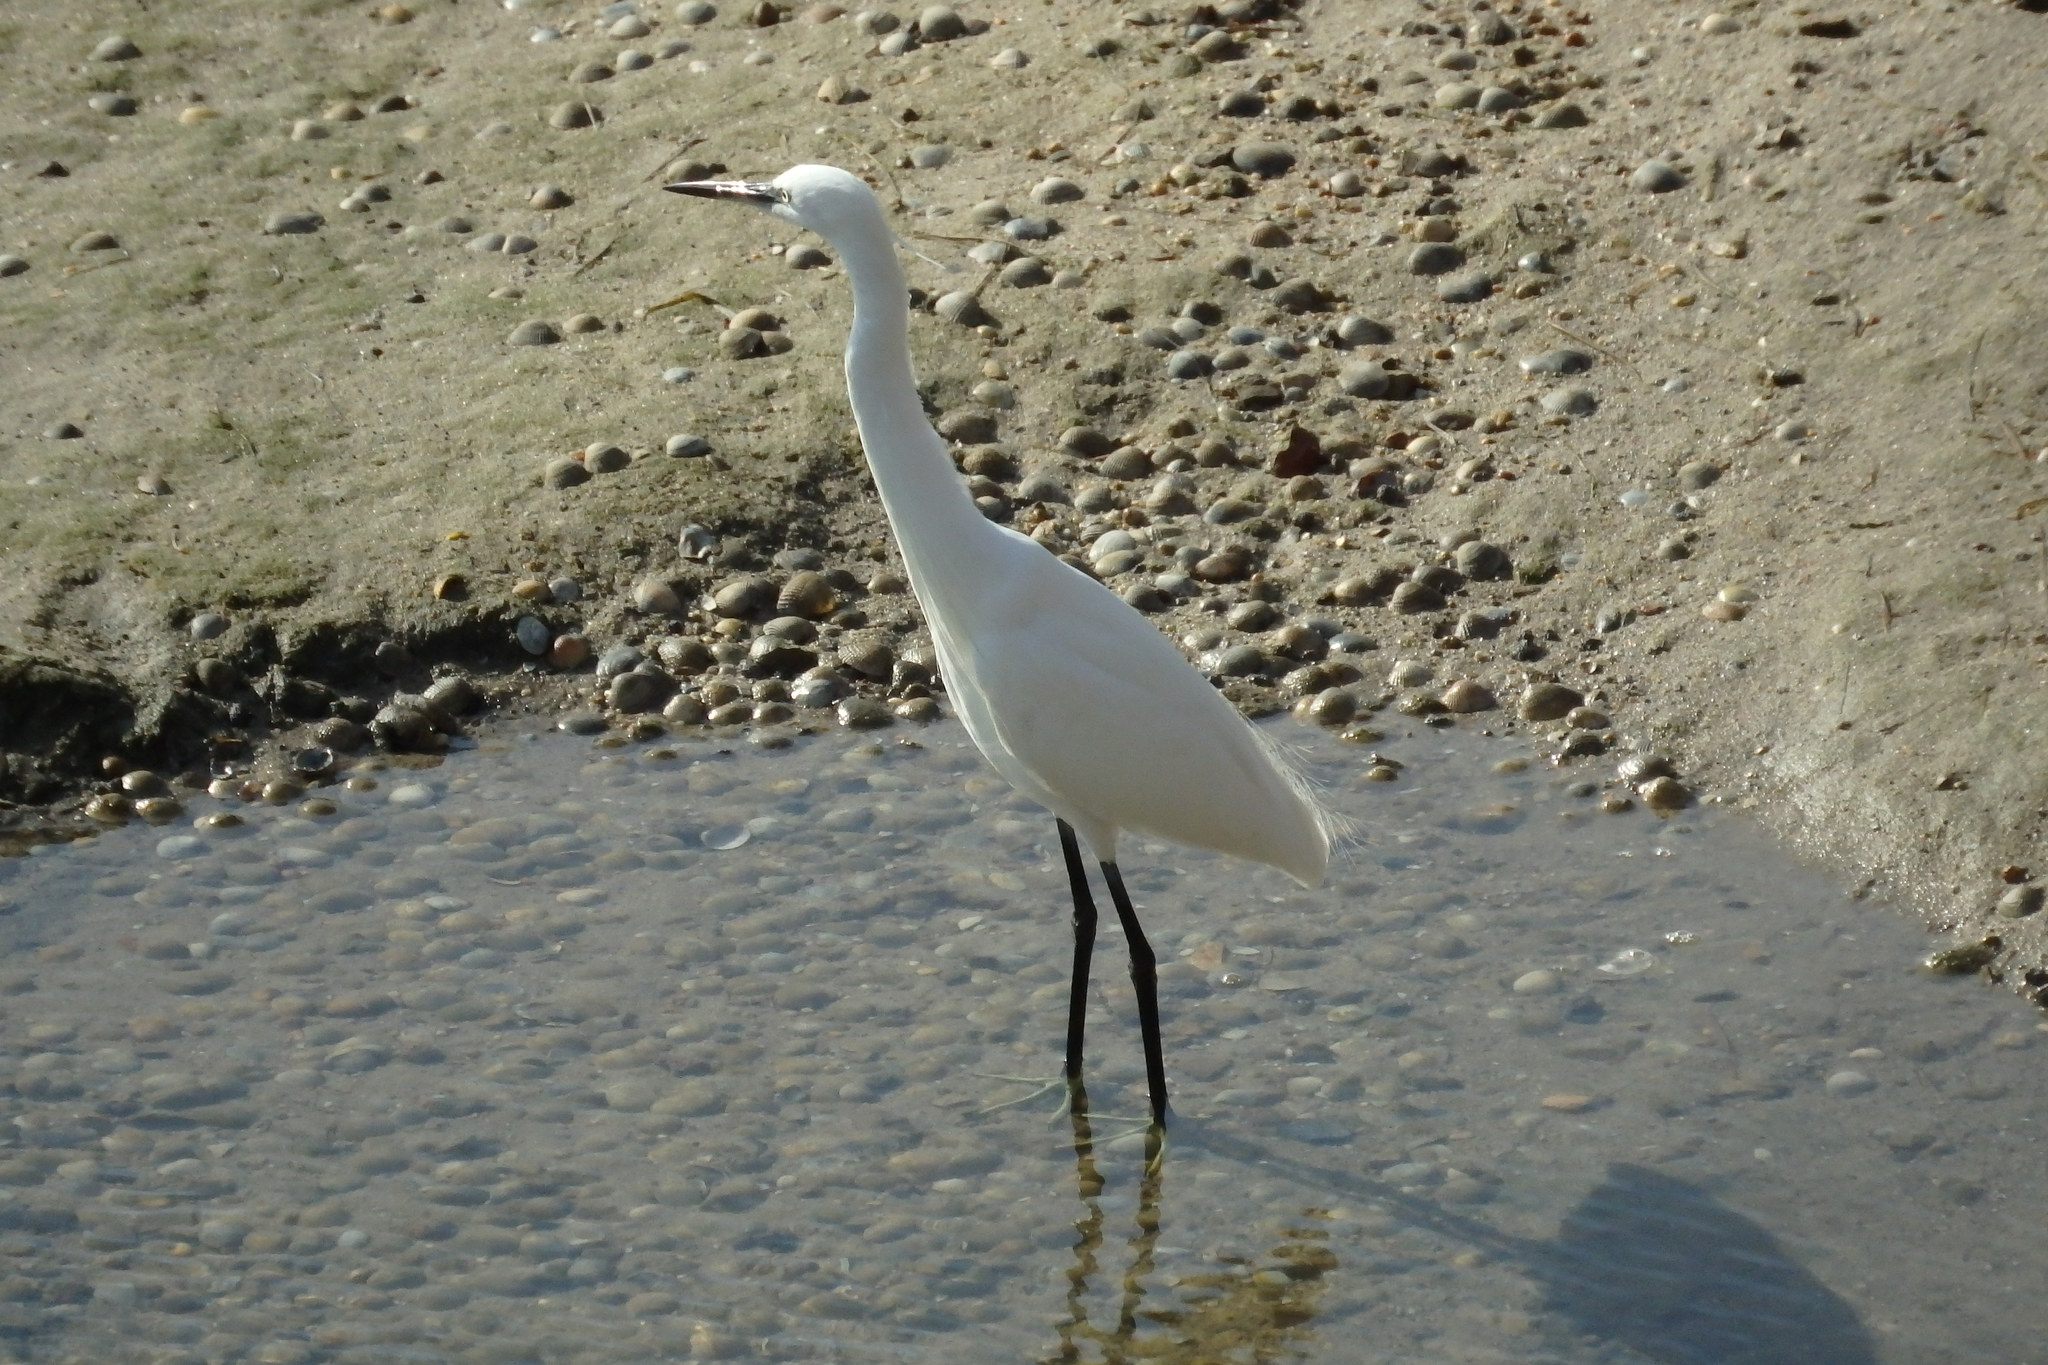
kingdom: Animalia
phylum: Chordata
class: Aves
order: Pelecaniformes
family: Ardeidae
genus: Egretta
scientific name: Egretta garzetta
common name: Little egret
